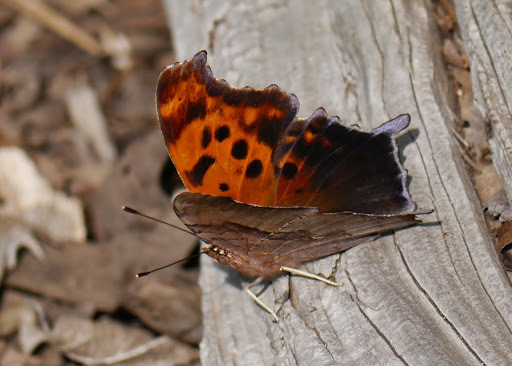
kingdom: Animalia
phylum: Arthropoda
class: Insecta
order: Lepidoptera
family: Nymphalidae
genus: Polygonia
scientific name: Polygonia interrogationis
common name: Question mark
